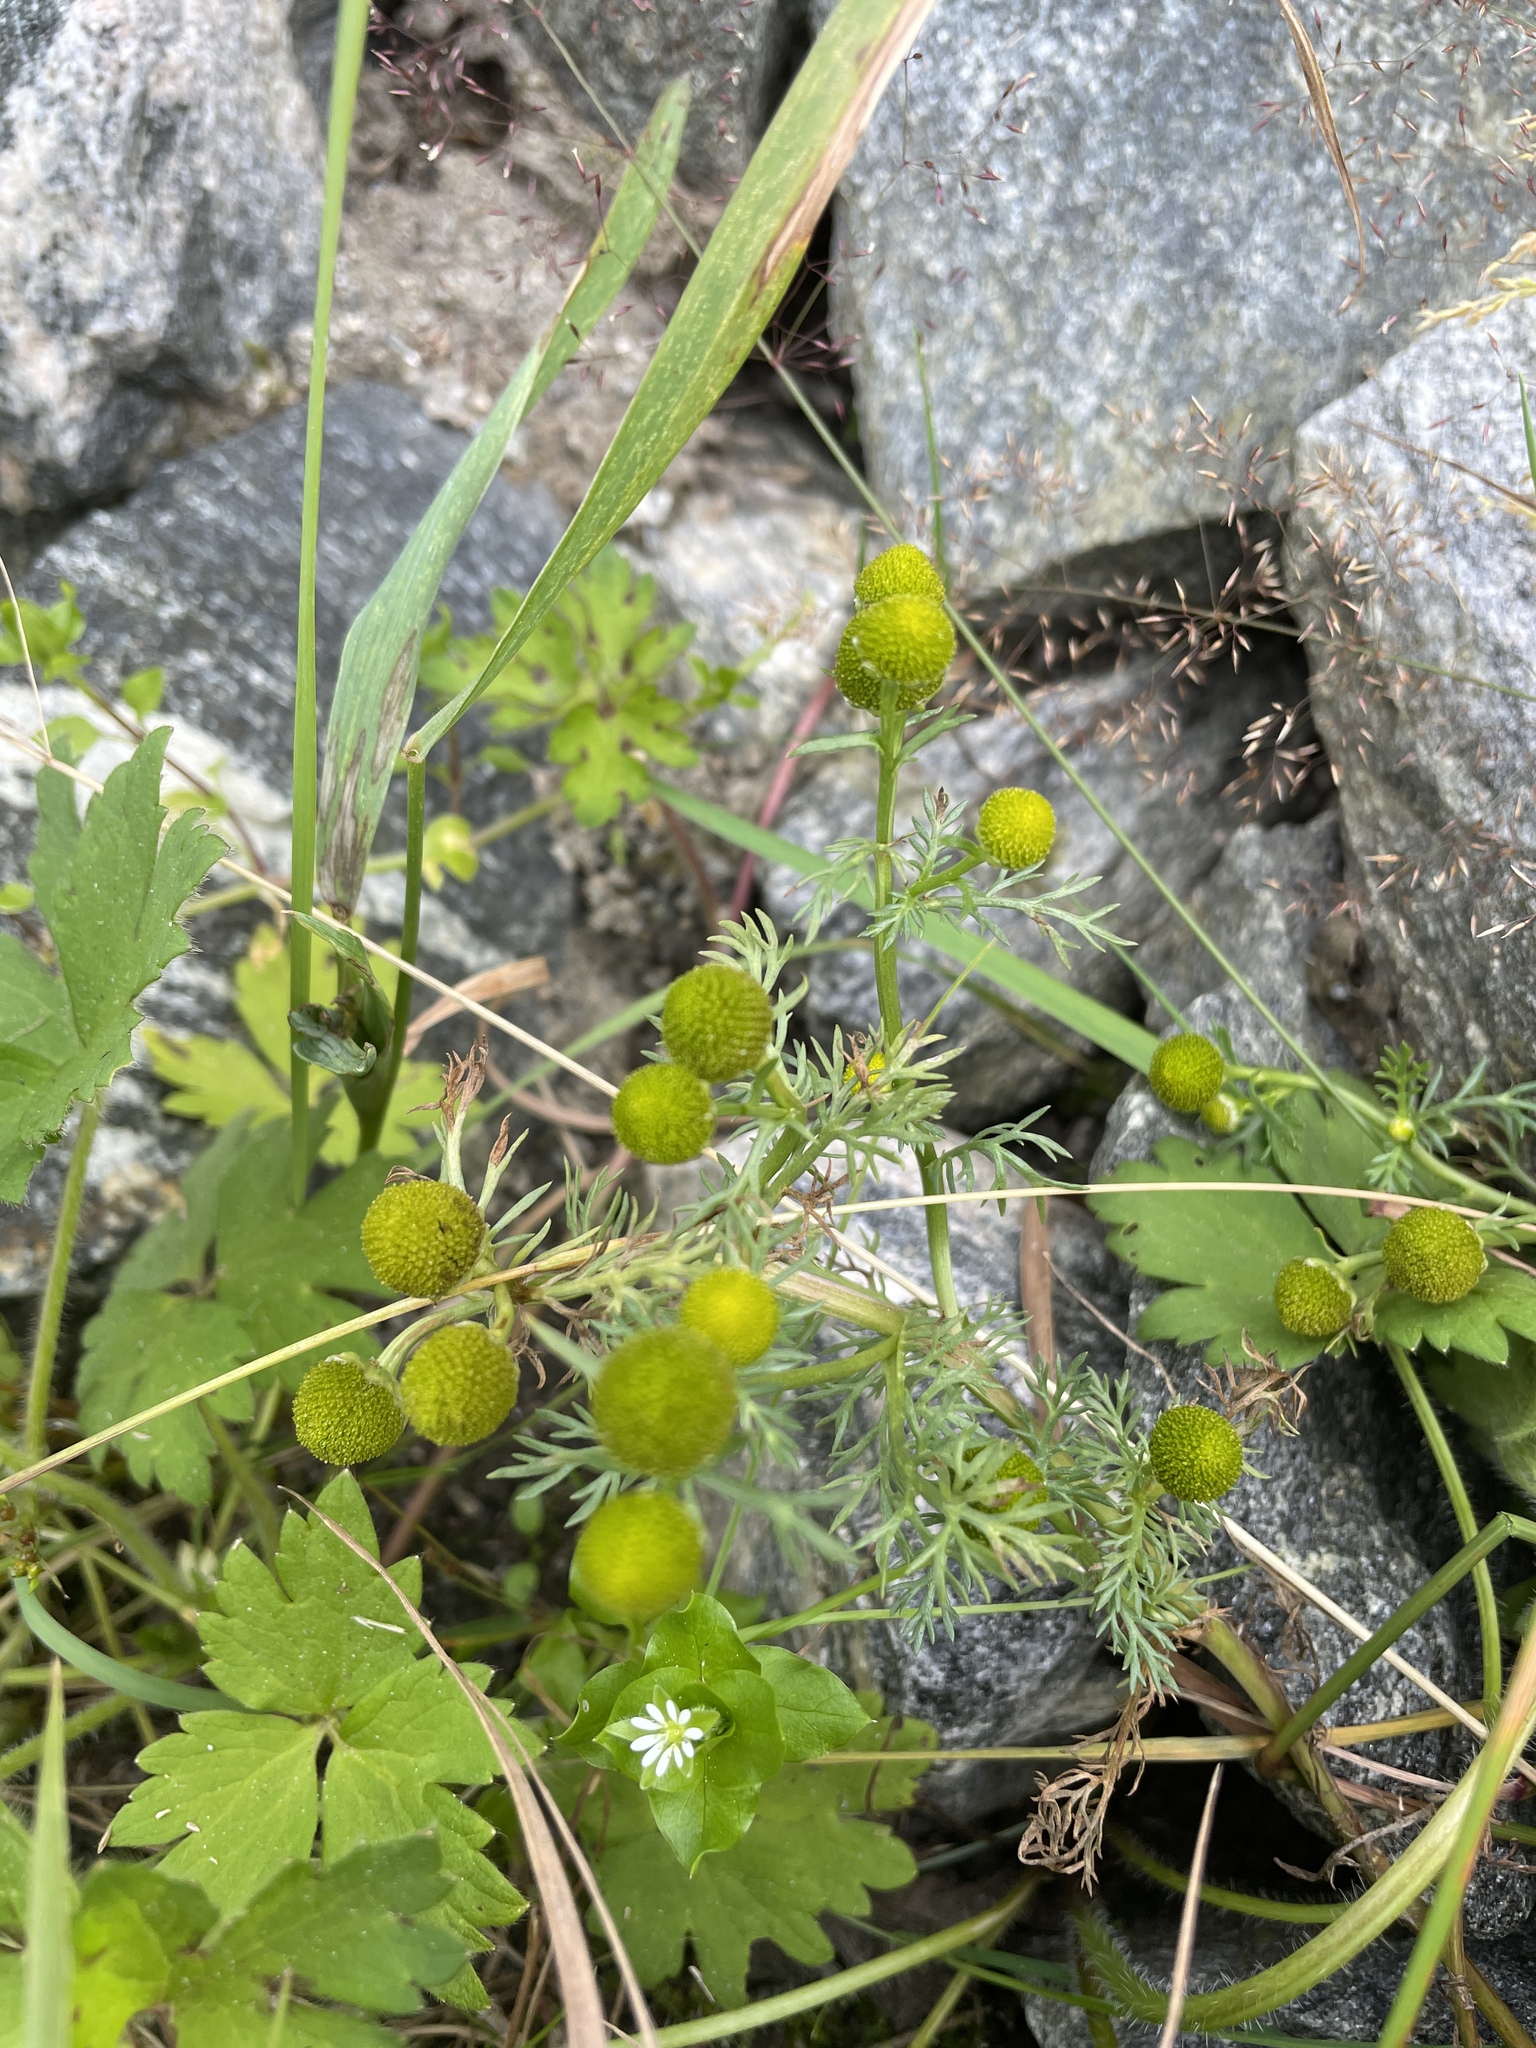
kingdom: Plantae
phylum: Tracheophyta
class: Magnoliopsida
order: Asterales
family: Asteraceae
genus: Matricaria
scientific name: Matricaria discoidea
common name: Disc mayweed
